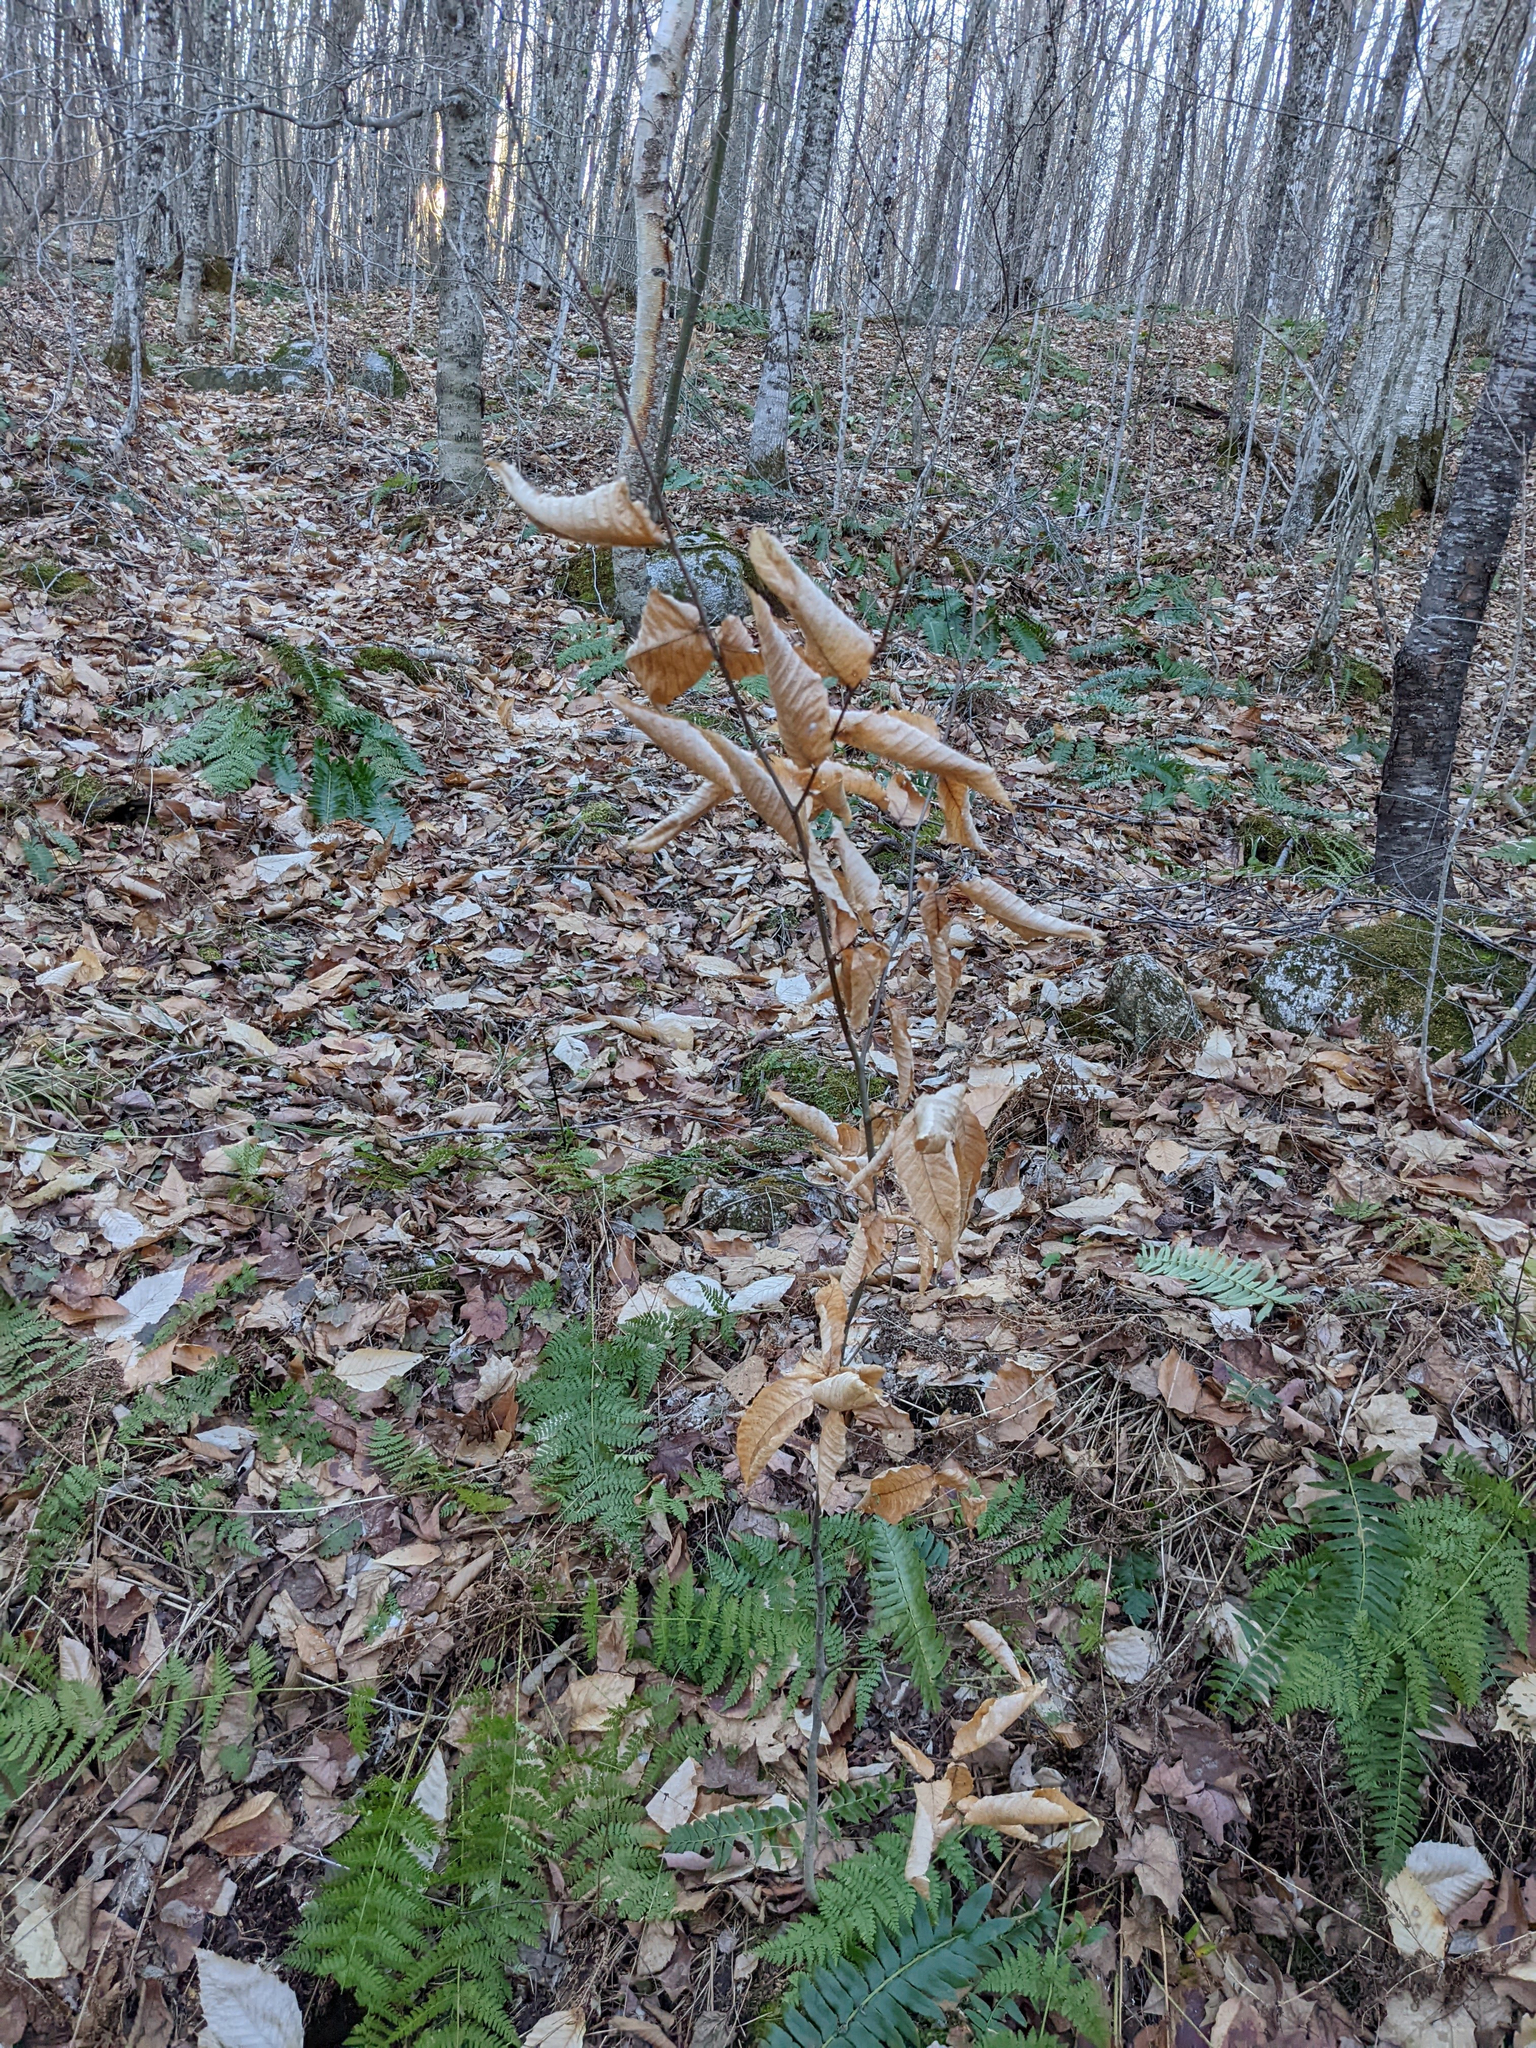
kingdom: Plantae
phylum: Tracheophyta
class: Magnoliopsida
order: Fagales
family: Fagaceae
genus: Fagus
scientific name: Fagus grandifolia
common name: American beech
